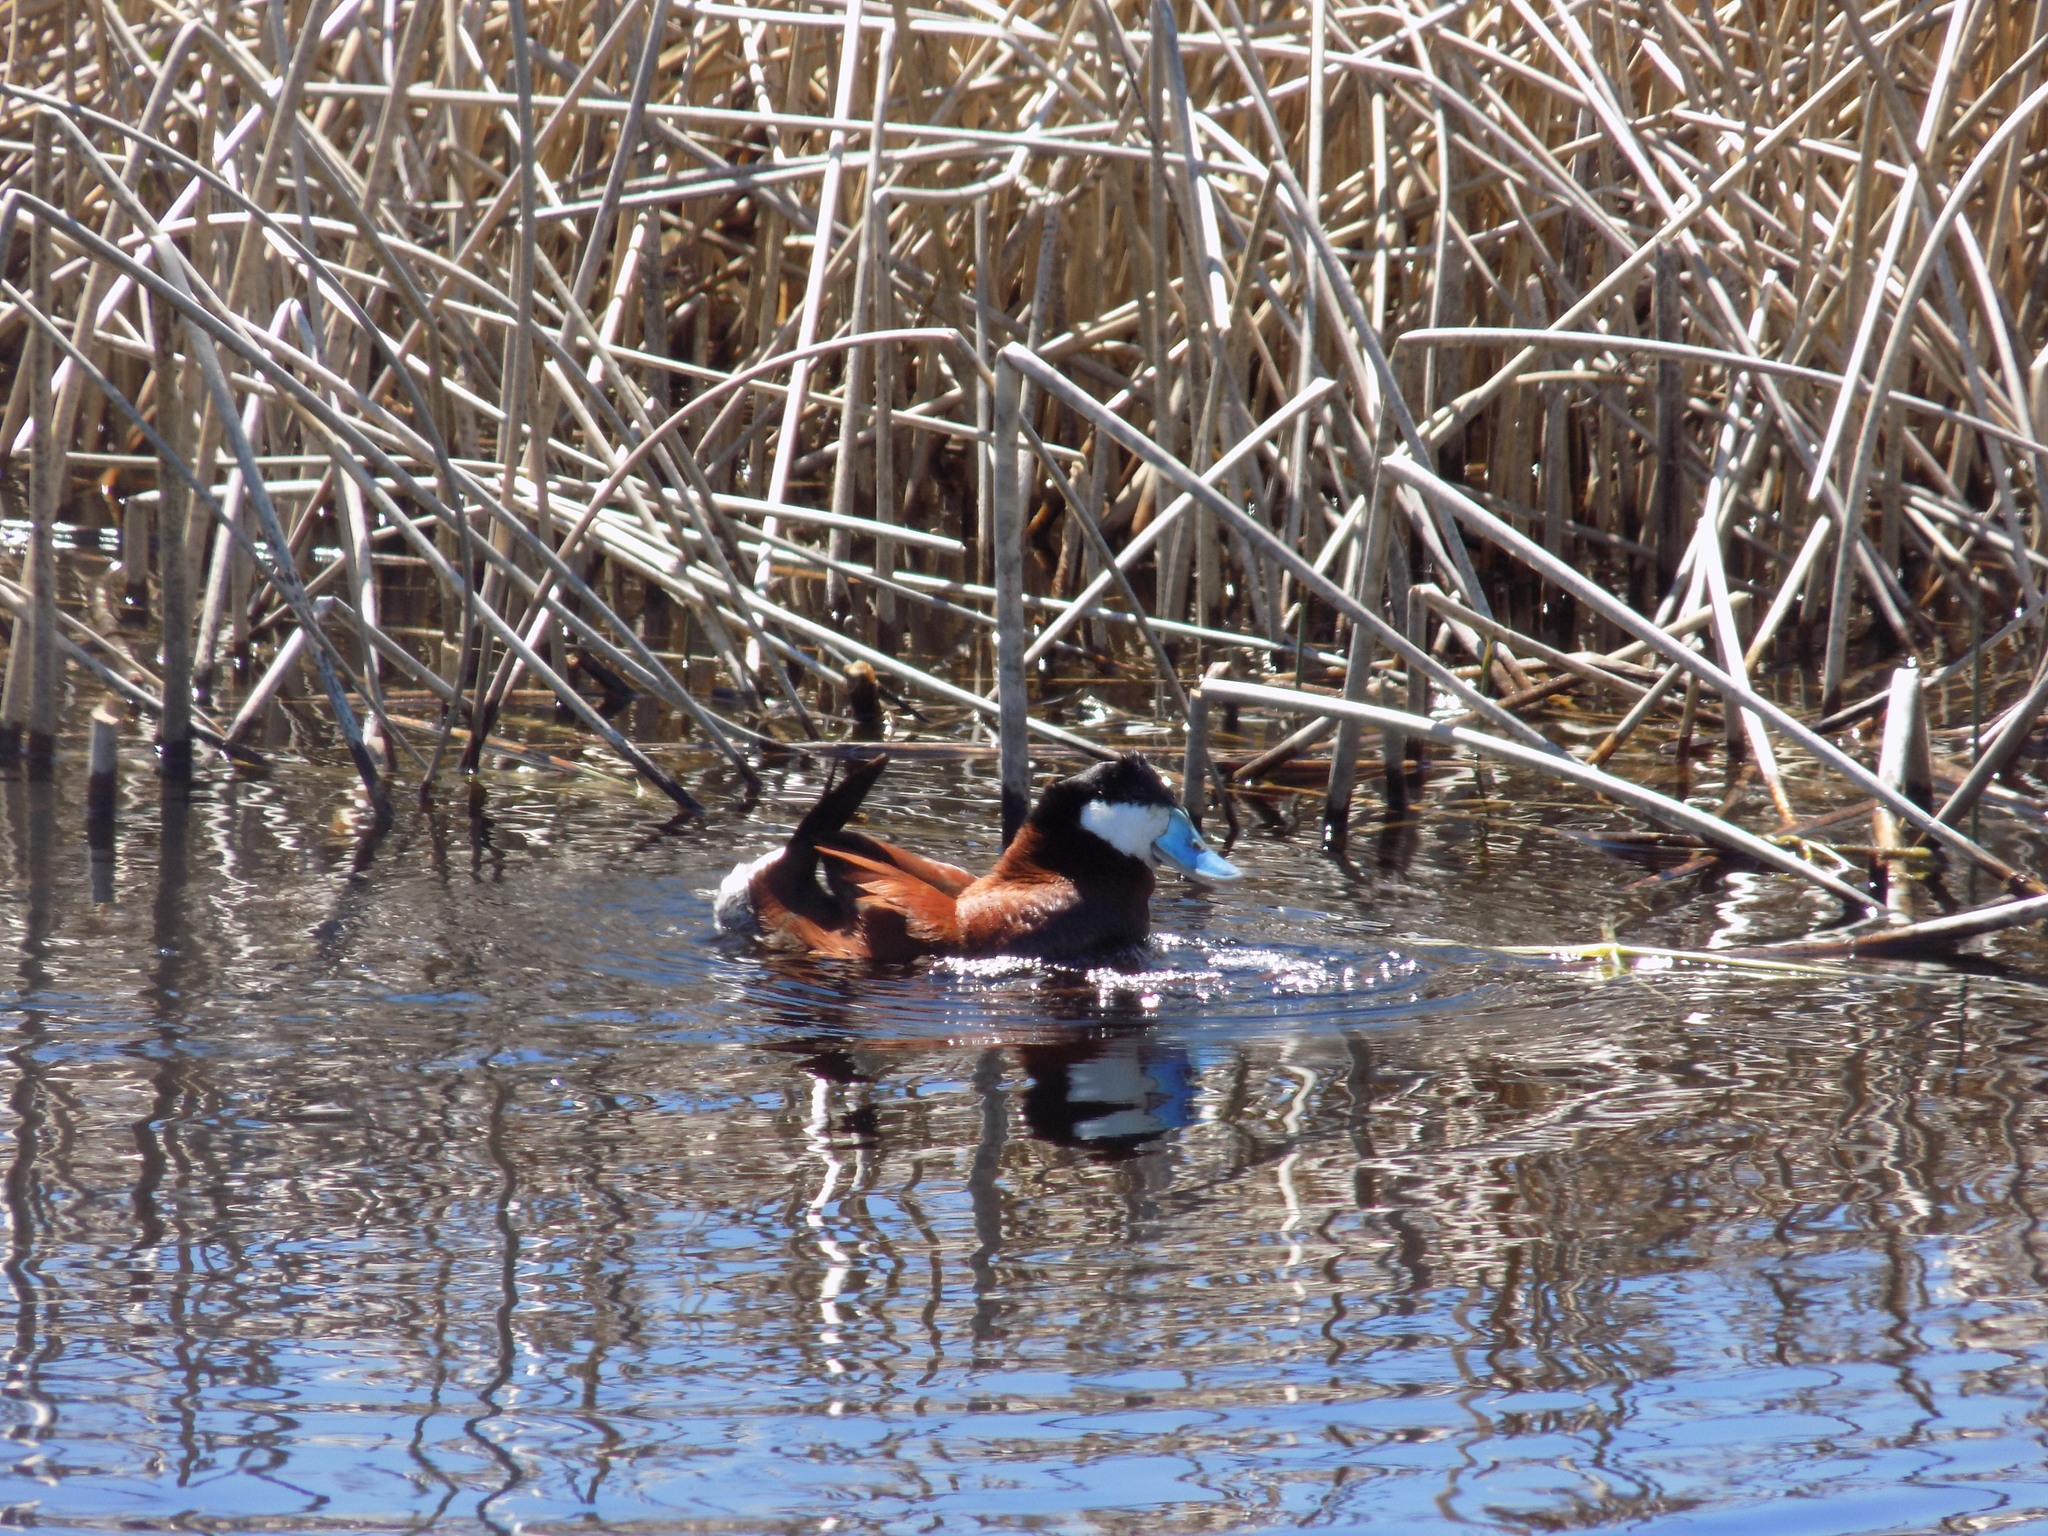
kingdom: Animalia
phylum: Chordata
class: Aves
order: Anseriformes
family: Anatidae
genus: Oxyura
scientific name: Oxyura jamaicensis
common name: Ruddy duck
